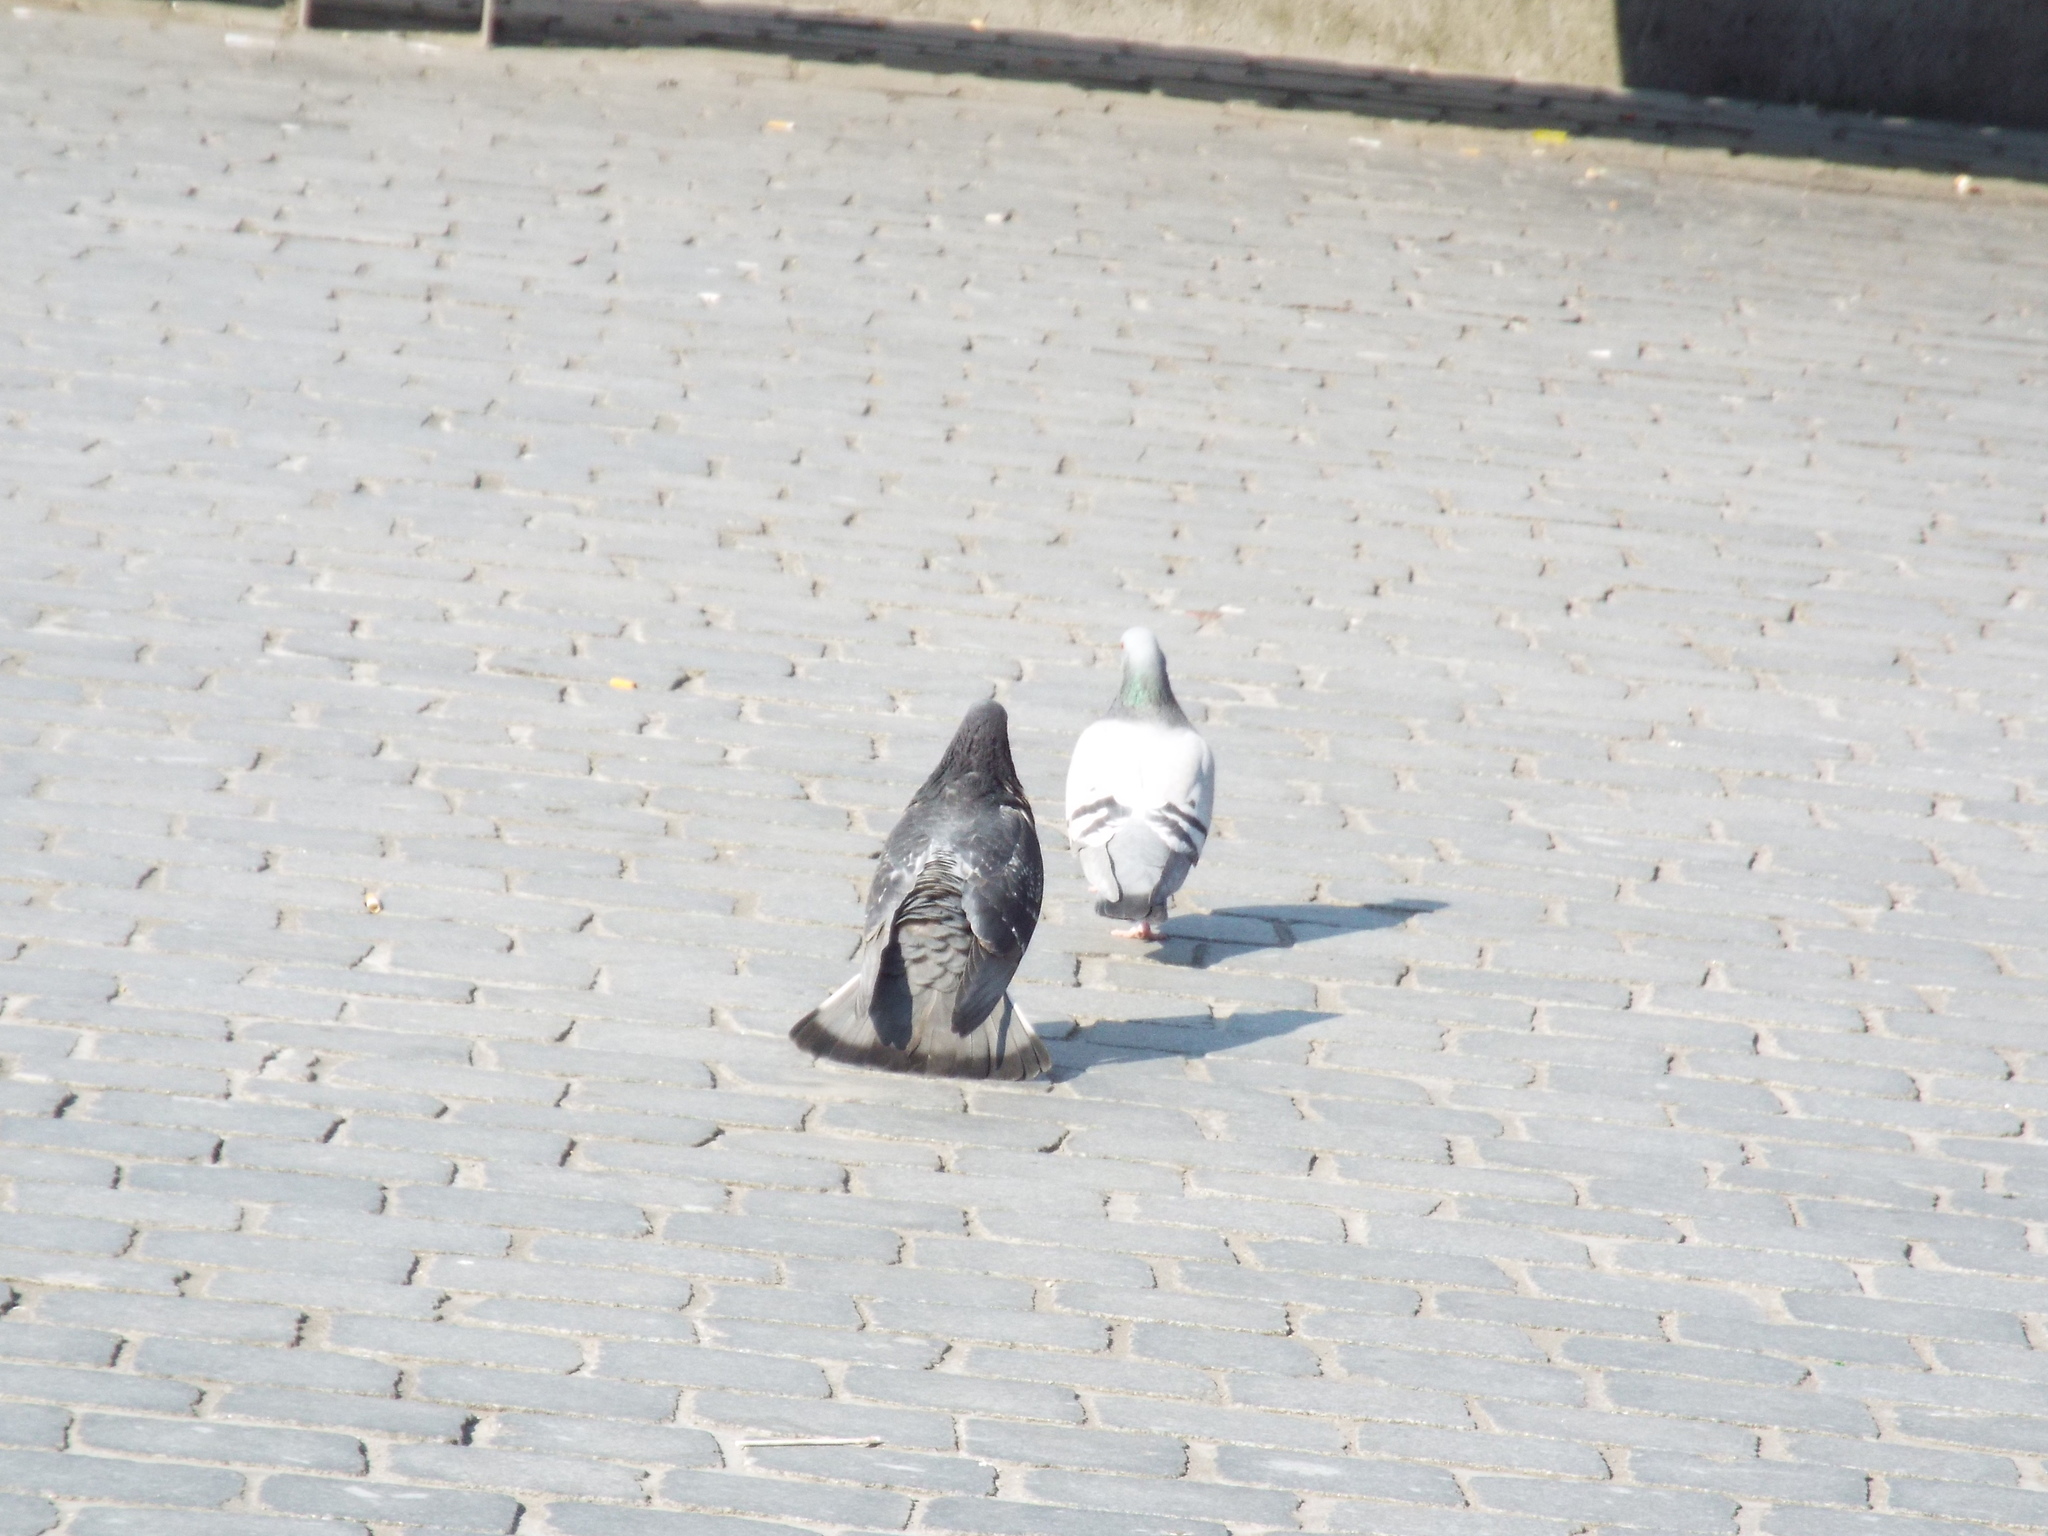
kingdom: Animalia
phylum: Chordata
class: Aves
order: Columbiformes
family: Columbidae
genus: Columba
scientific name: Columba livia
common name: Rock pigeon
